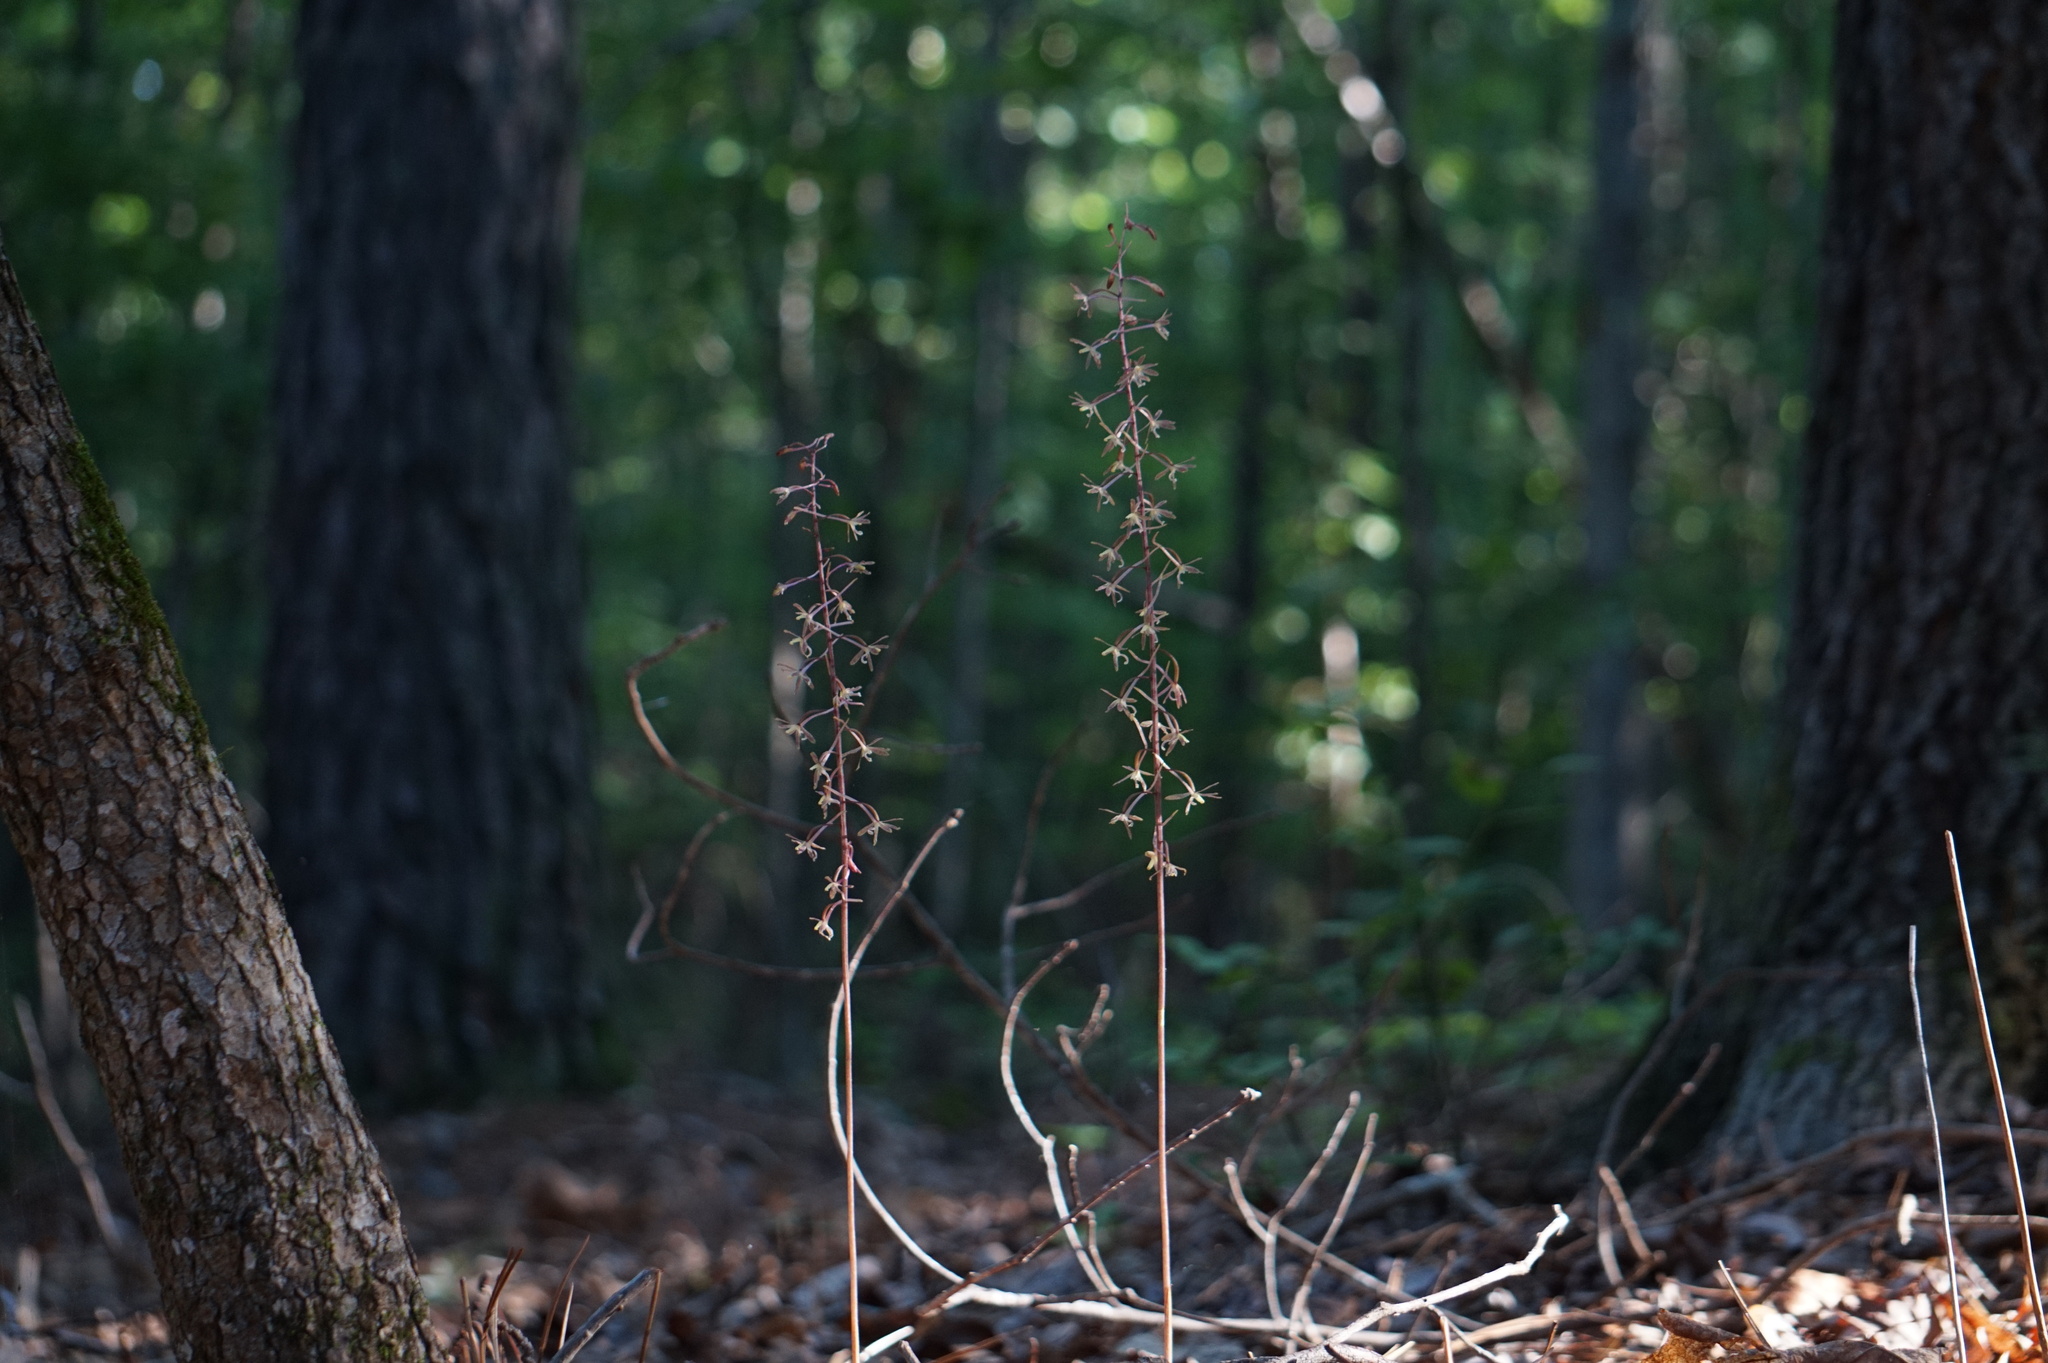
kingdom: Plantae
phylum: Tracheophyta
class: Liliopsida
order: Asparagales
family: Orchidaceae
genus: Tipularia
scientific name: Tipularia discolor
